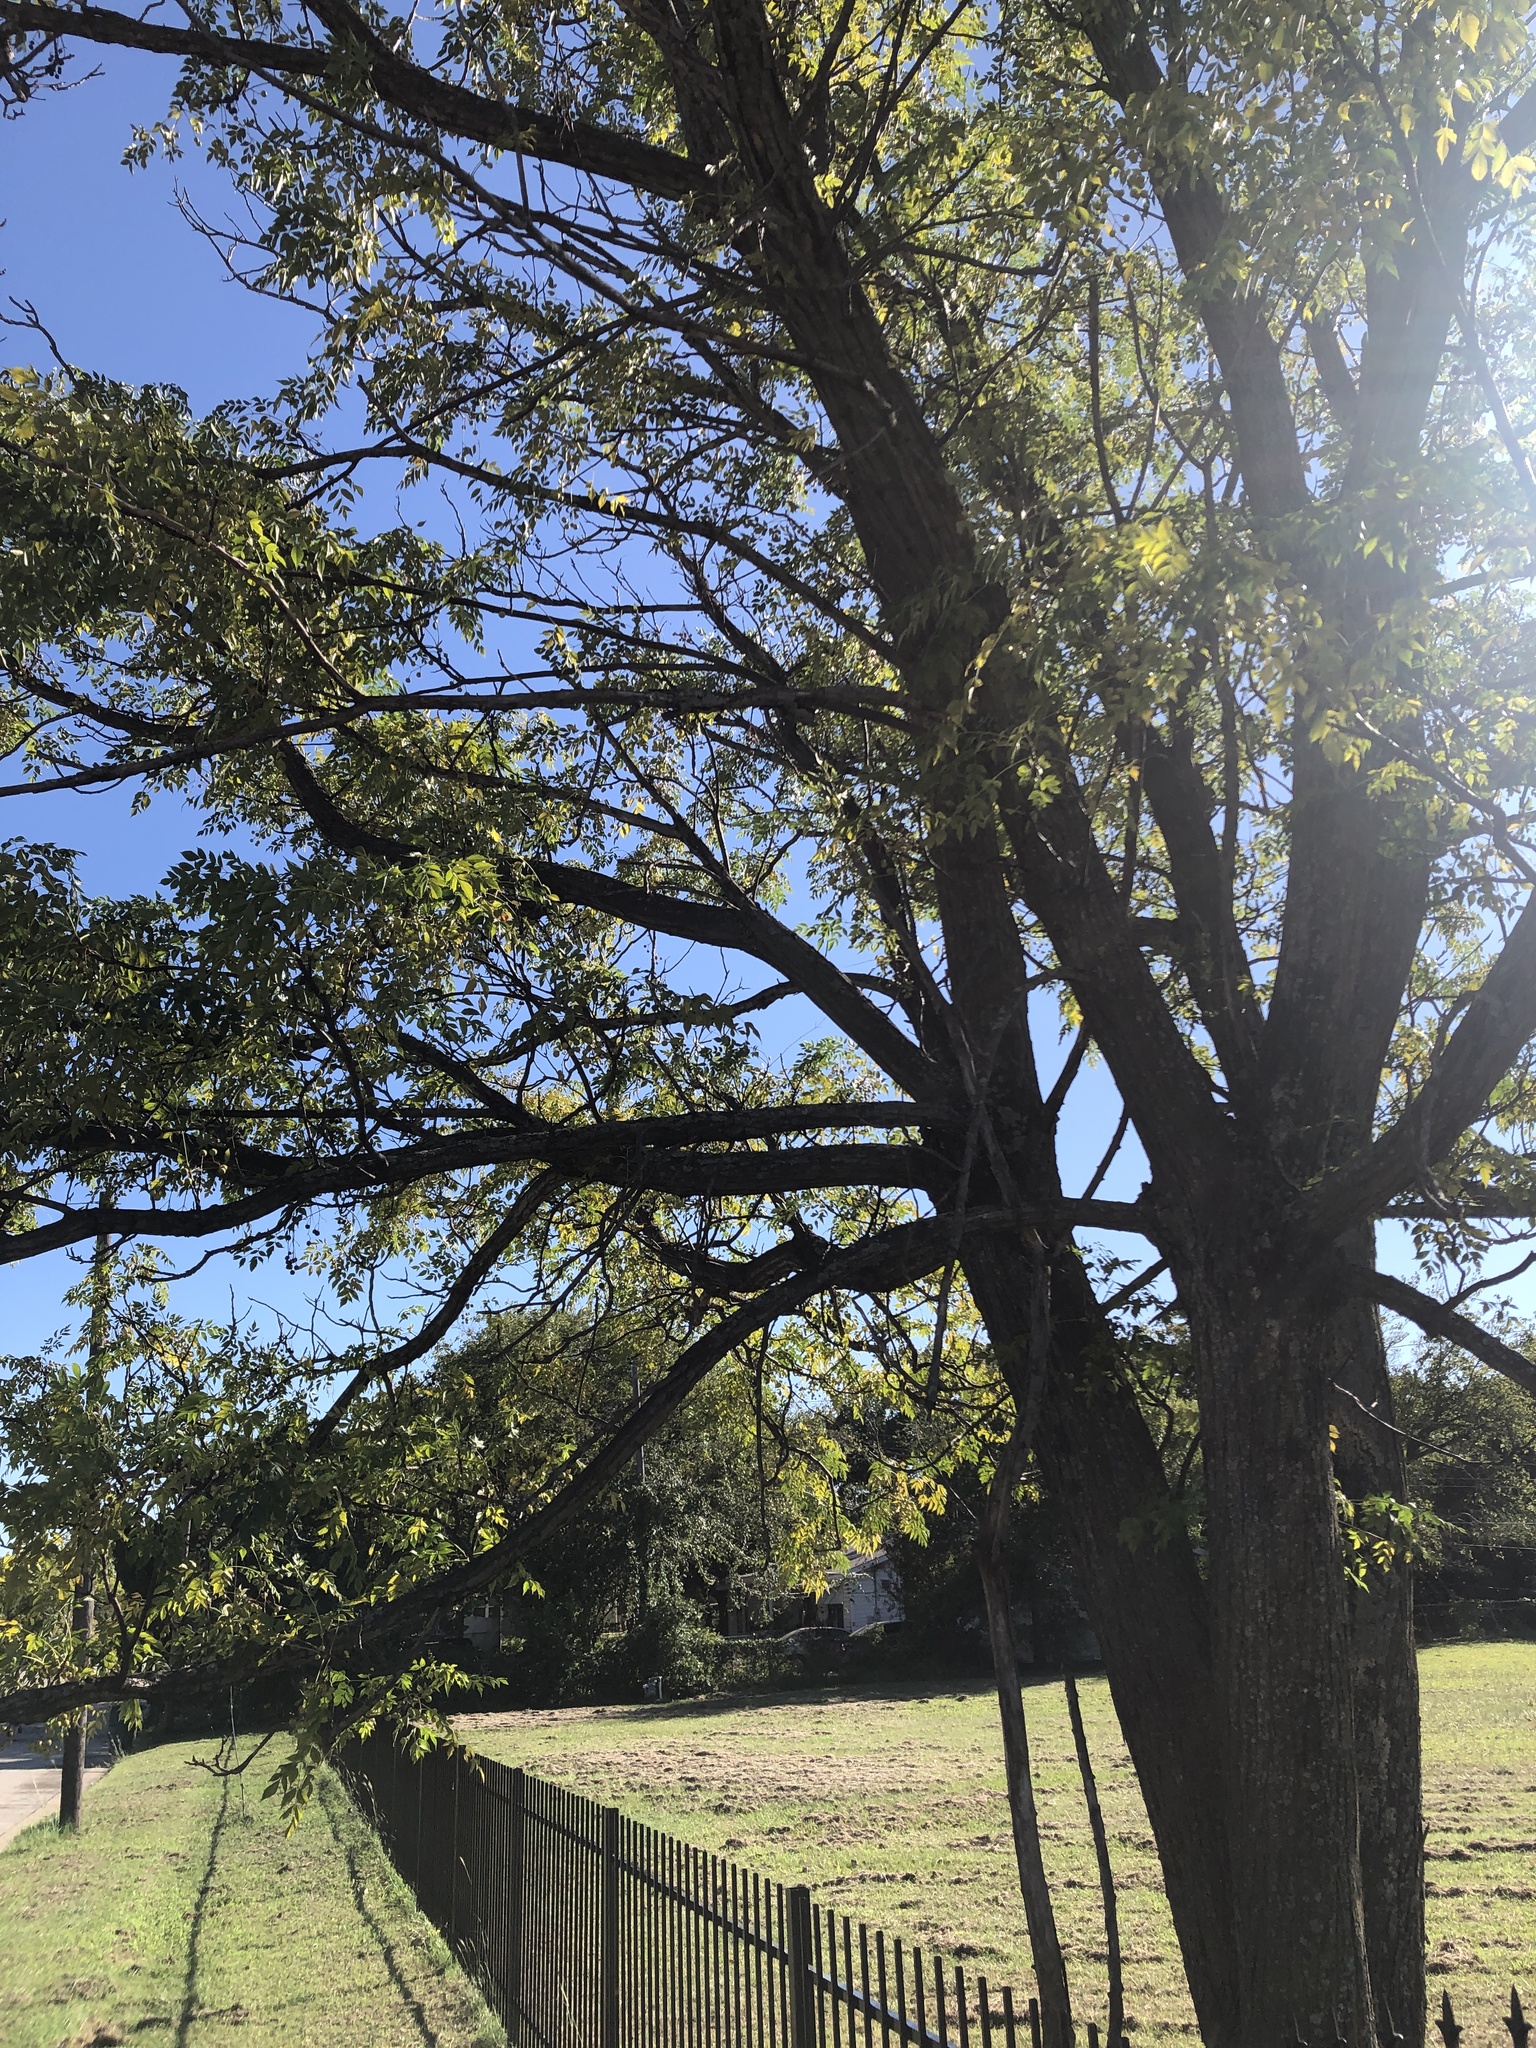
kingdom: Plantae
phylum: Tracheophyta
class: Magnoliopsida
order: Sapindales
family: Meliaceae
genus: Melia
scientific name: Melia azedarach
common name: Chinaberrytree
